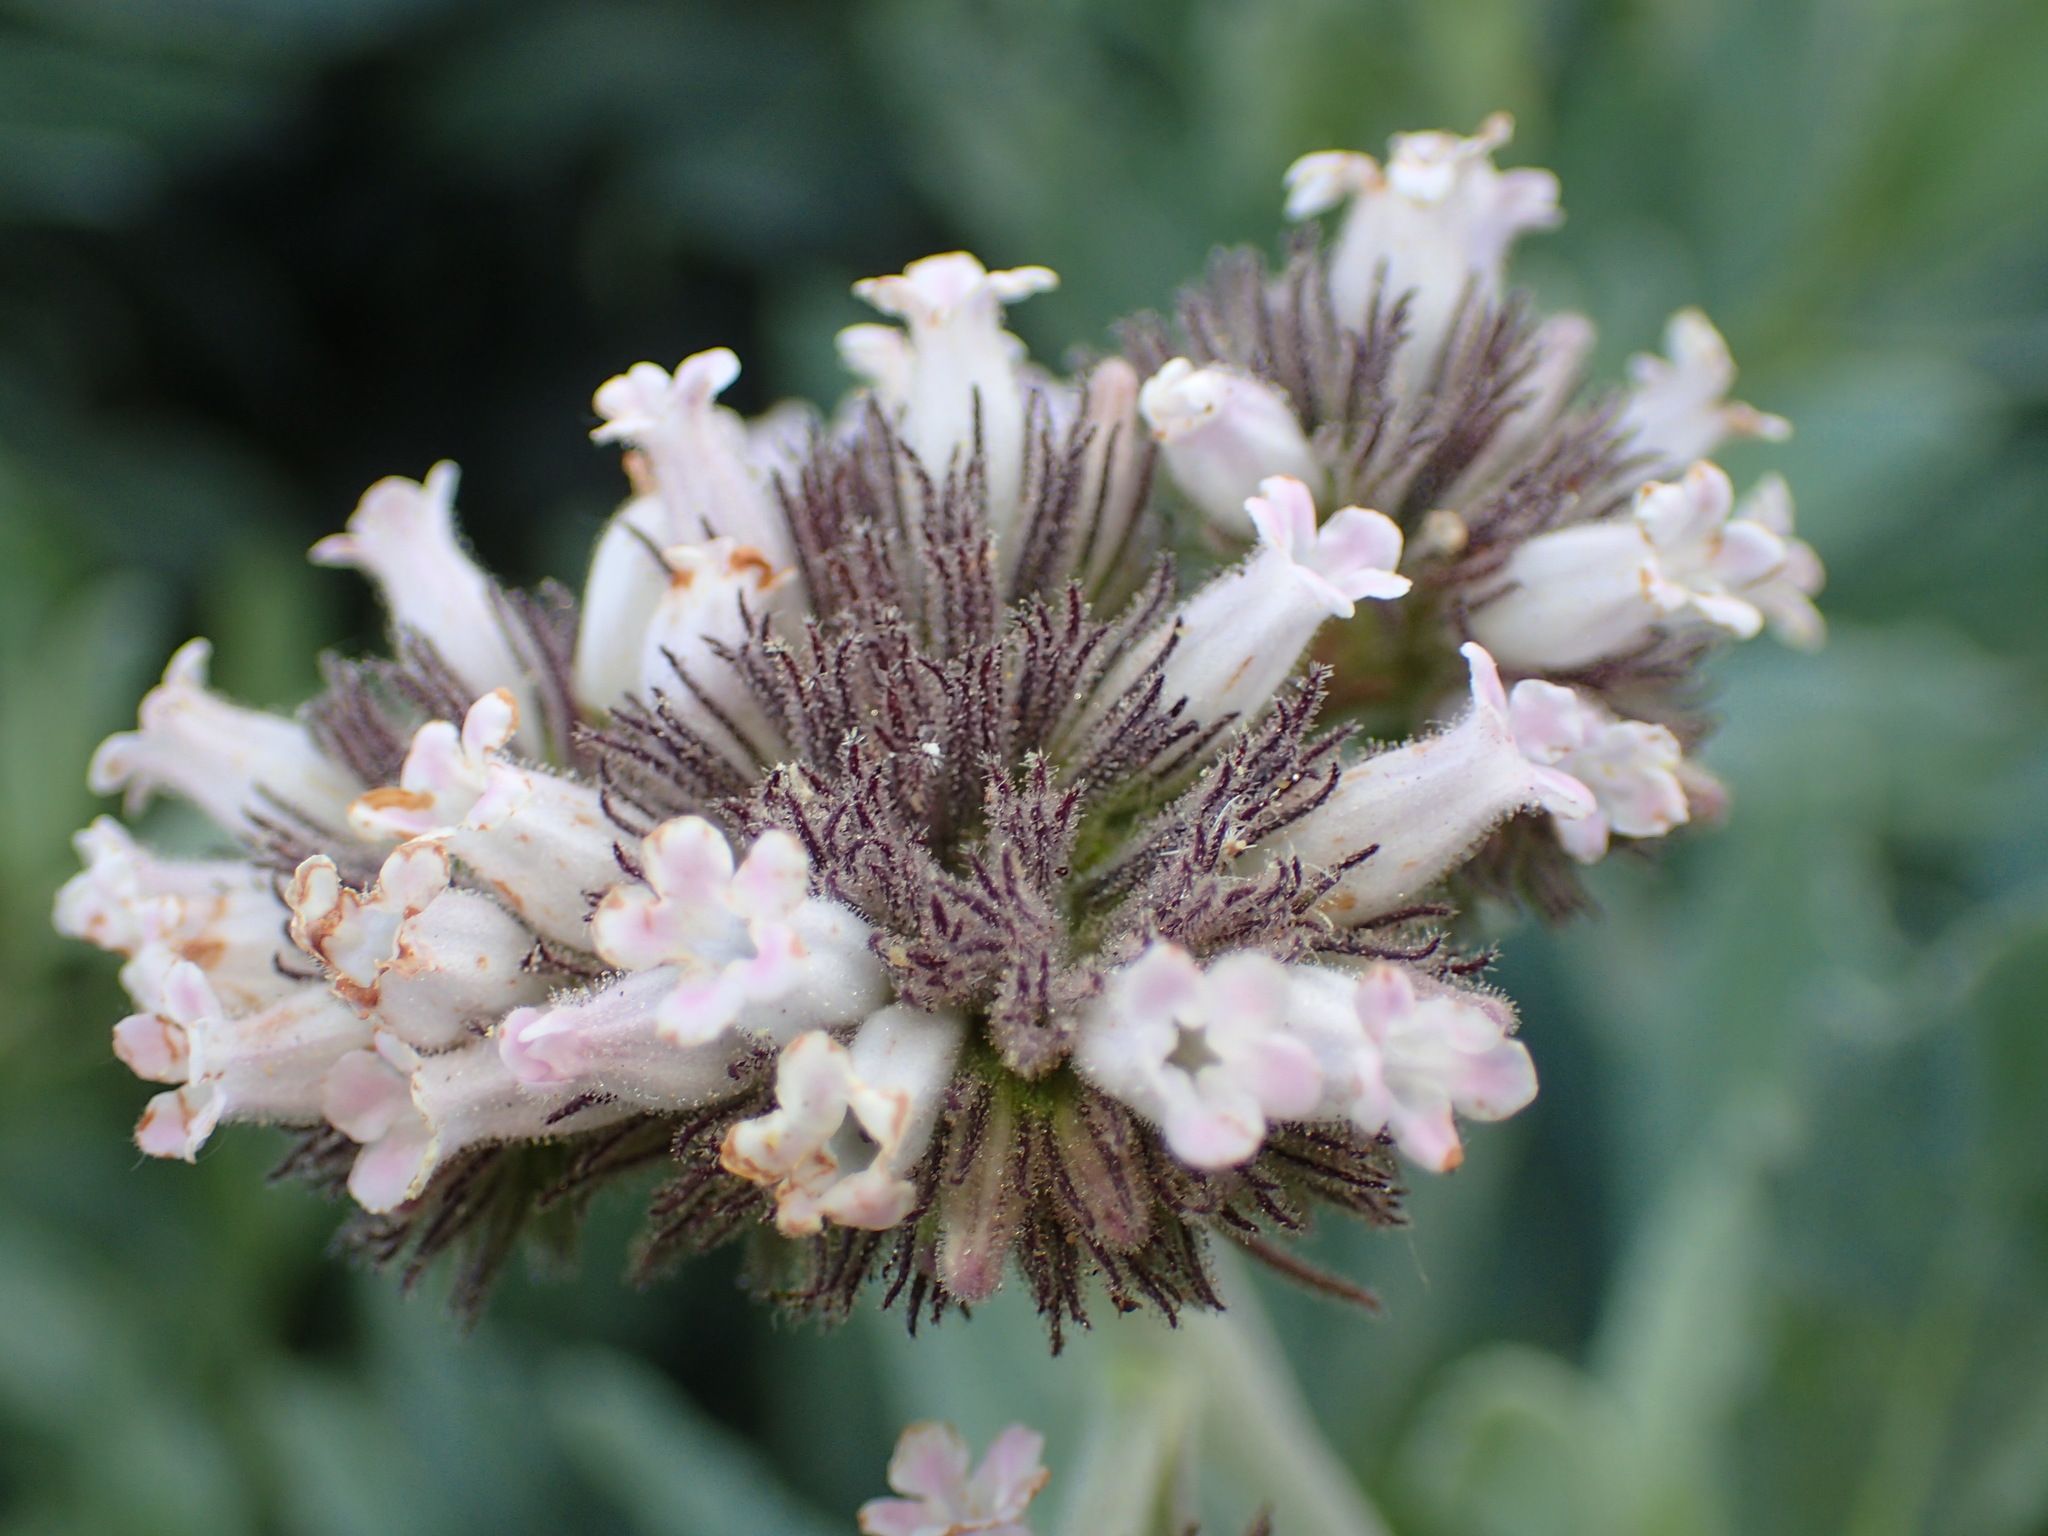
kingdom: Plantae
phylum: Tracheophyta
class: Magnoliopsida
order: Boraginales
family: Namaceae
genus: Eriodictyon
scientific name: Eriodictyon traskiae
